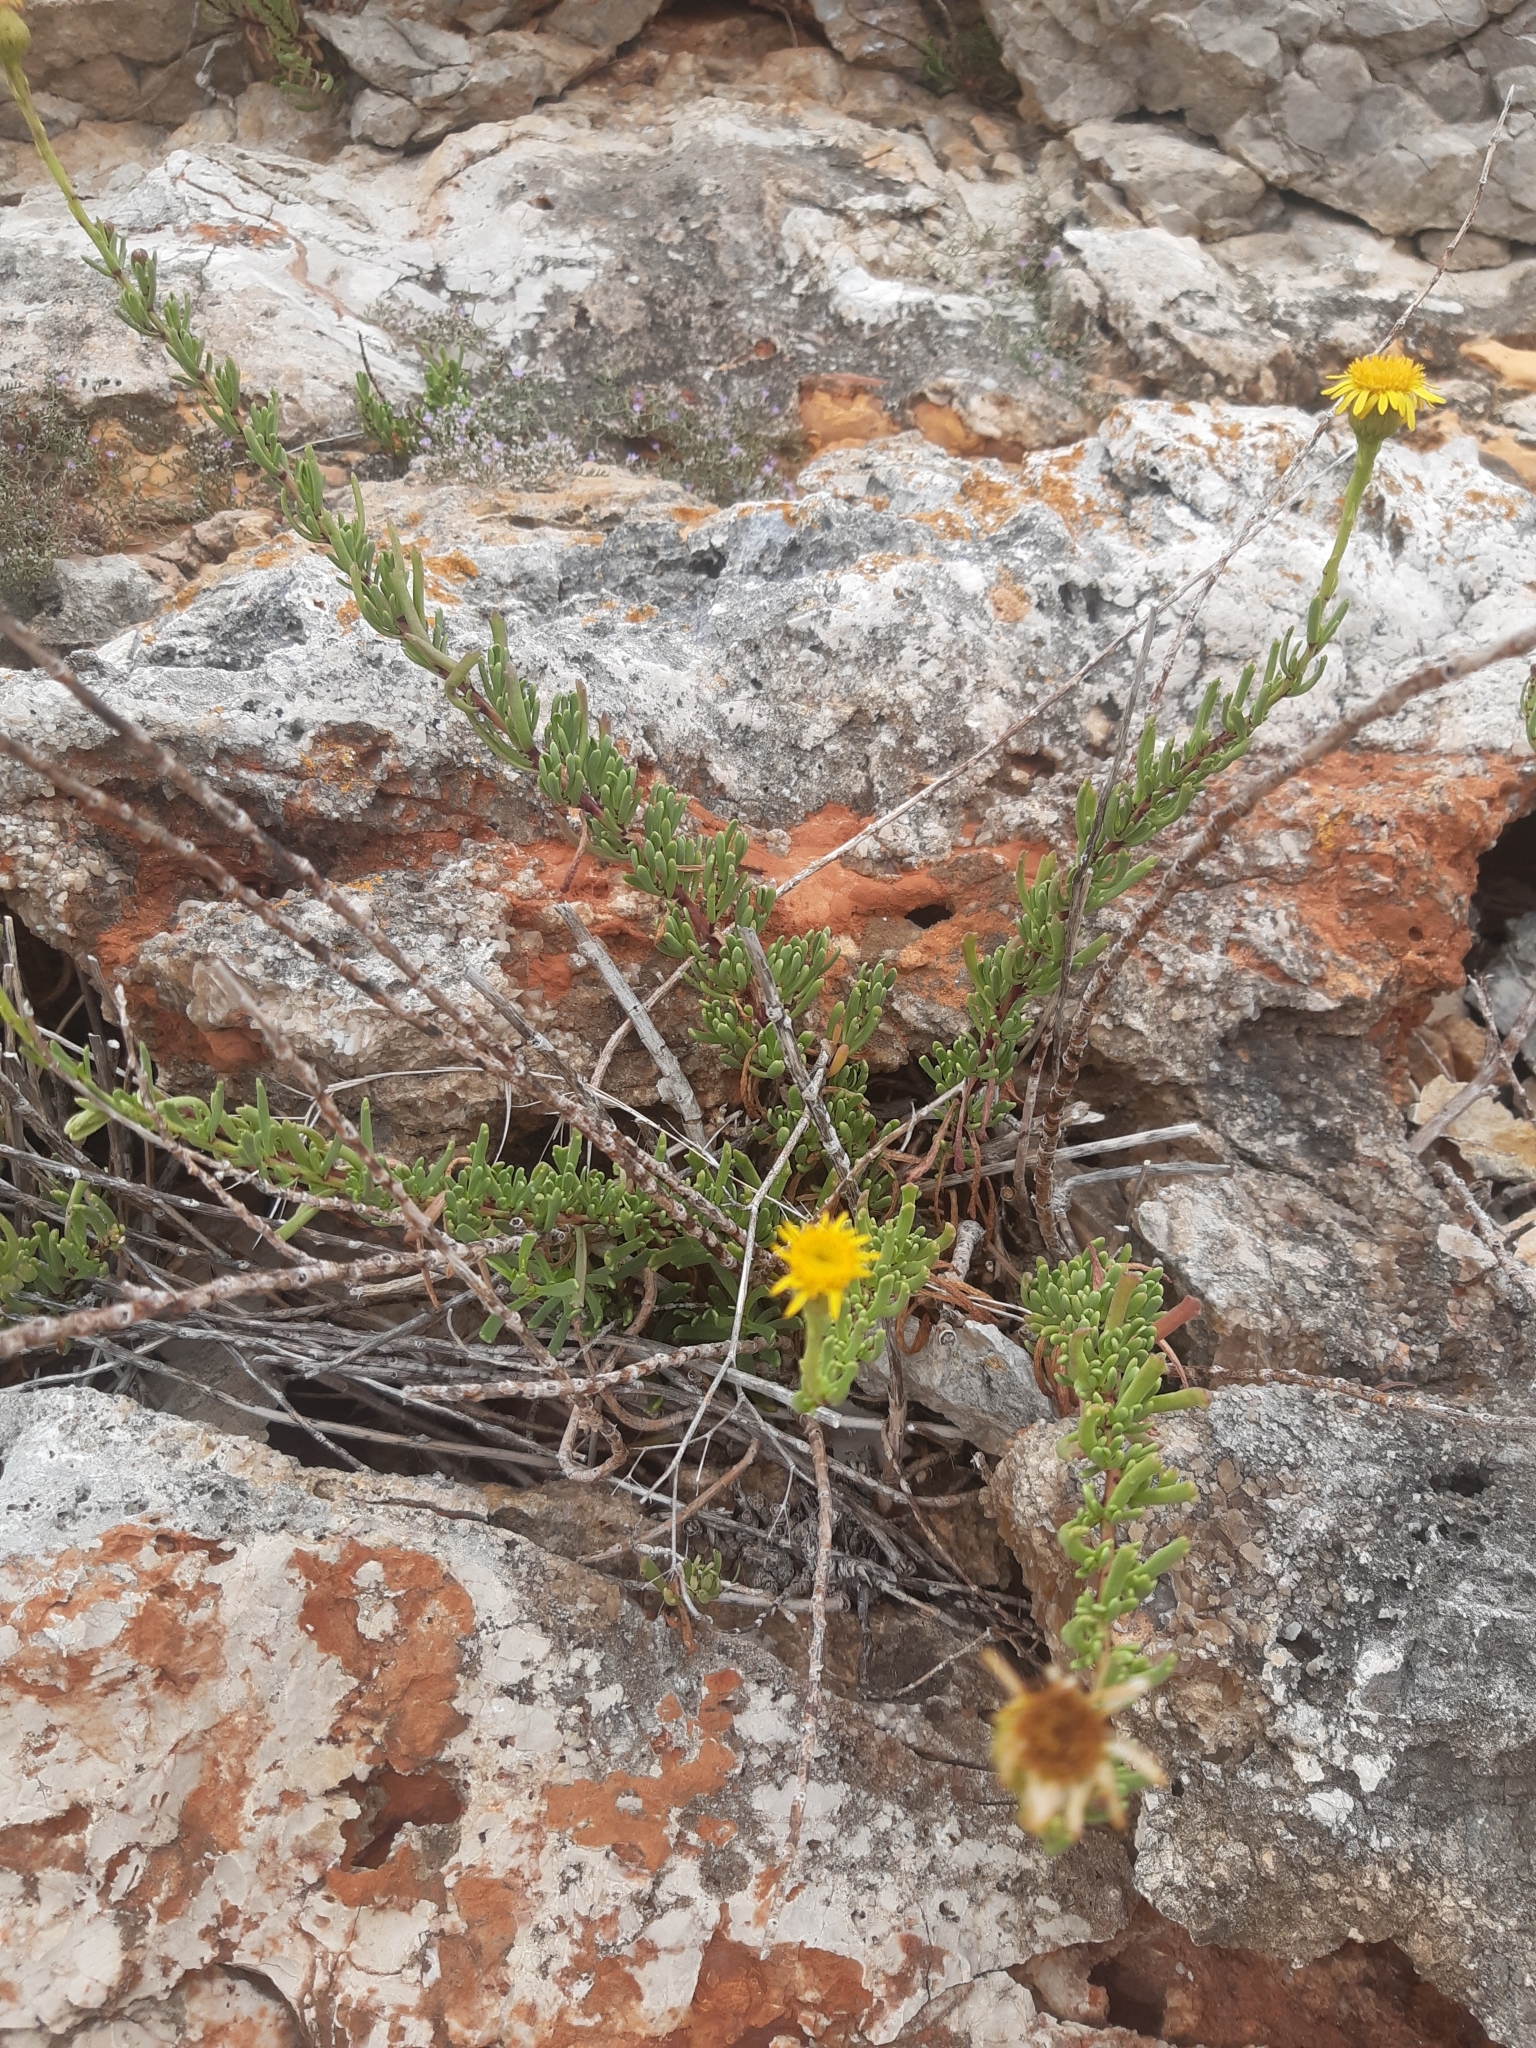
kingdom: Plantae
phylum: Tracheophyta
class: Magnoliopsida
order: Asterales
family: Asteraceae
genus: Limbarda
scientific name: Limbarda crithmoides
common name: Golden samphire
